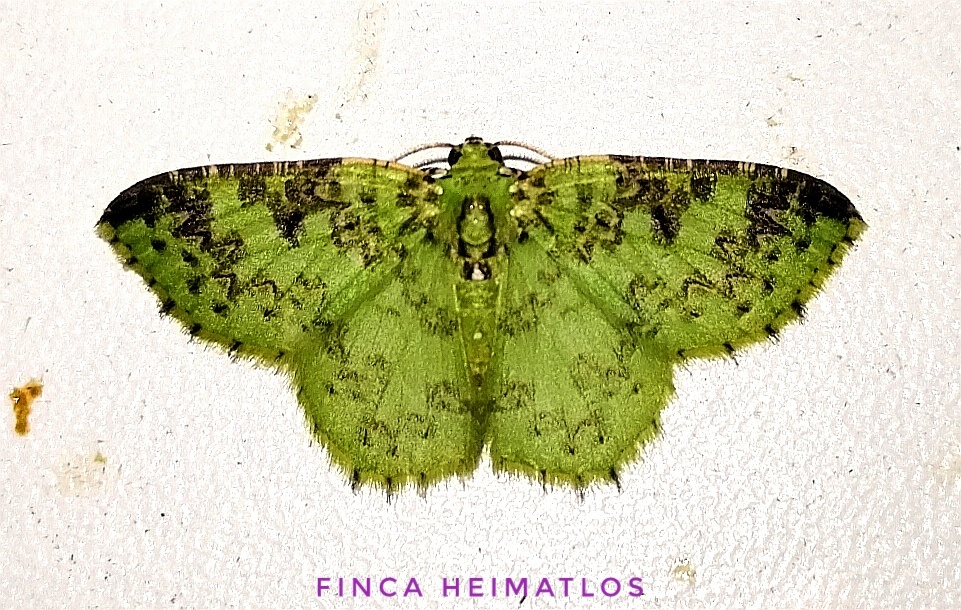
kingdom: Animalia
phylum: Arthropoda
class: Insecta
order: Lepidoptera
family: Geometridae
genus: Nemoria
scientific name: Nemoria scriptaria
